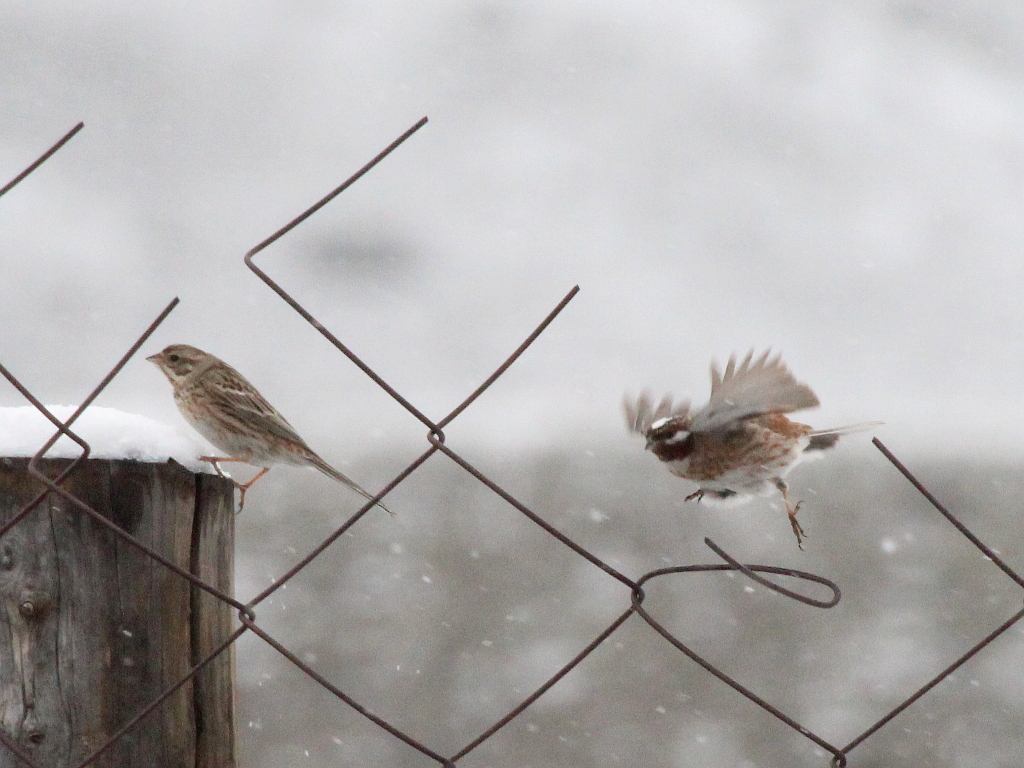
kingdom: Animalia
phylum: Chordata
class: Aves
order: Passeriformes
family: Emberizidae
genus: Emberiza
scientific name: Emberiza leucocephalos
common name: Pine bunting
